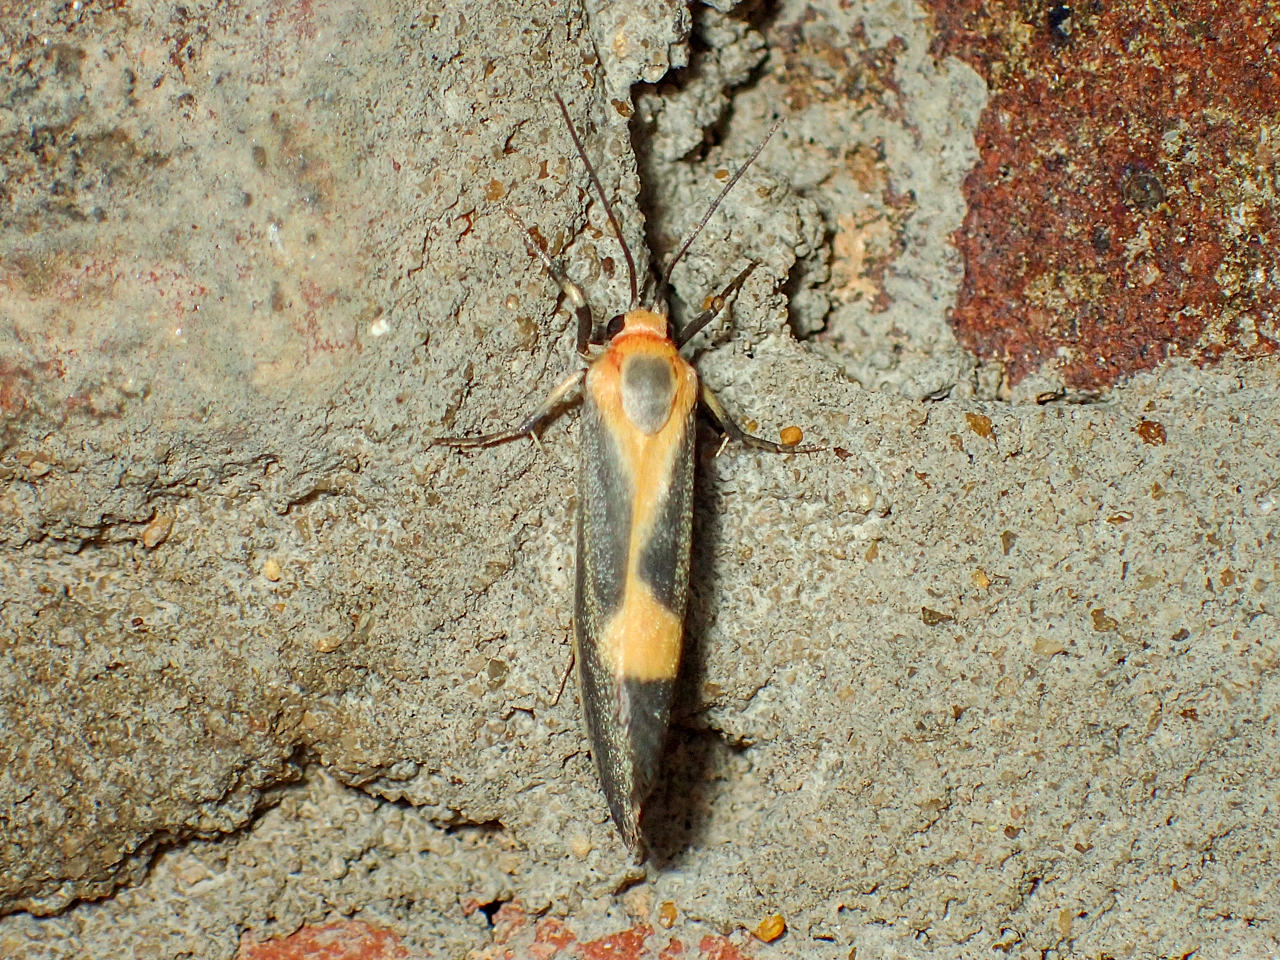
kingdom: Animalia
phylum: Arthropoda
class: Insecta
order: Lepidoptera
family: Erebidae
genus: Cisthene
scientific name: Cisthene plumbea
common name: Lead colored lichen moth
